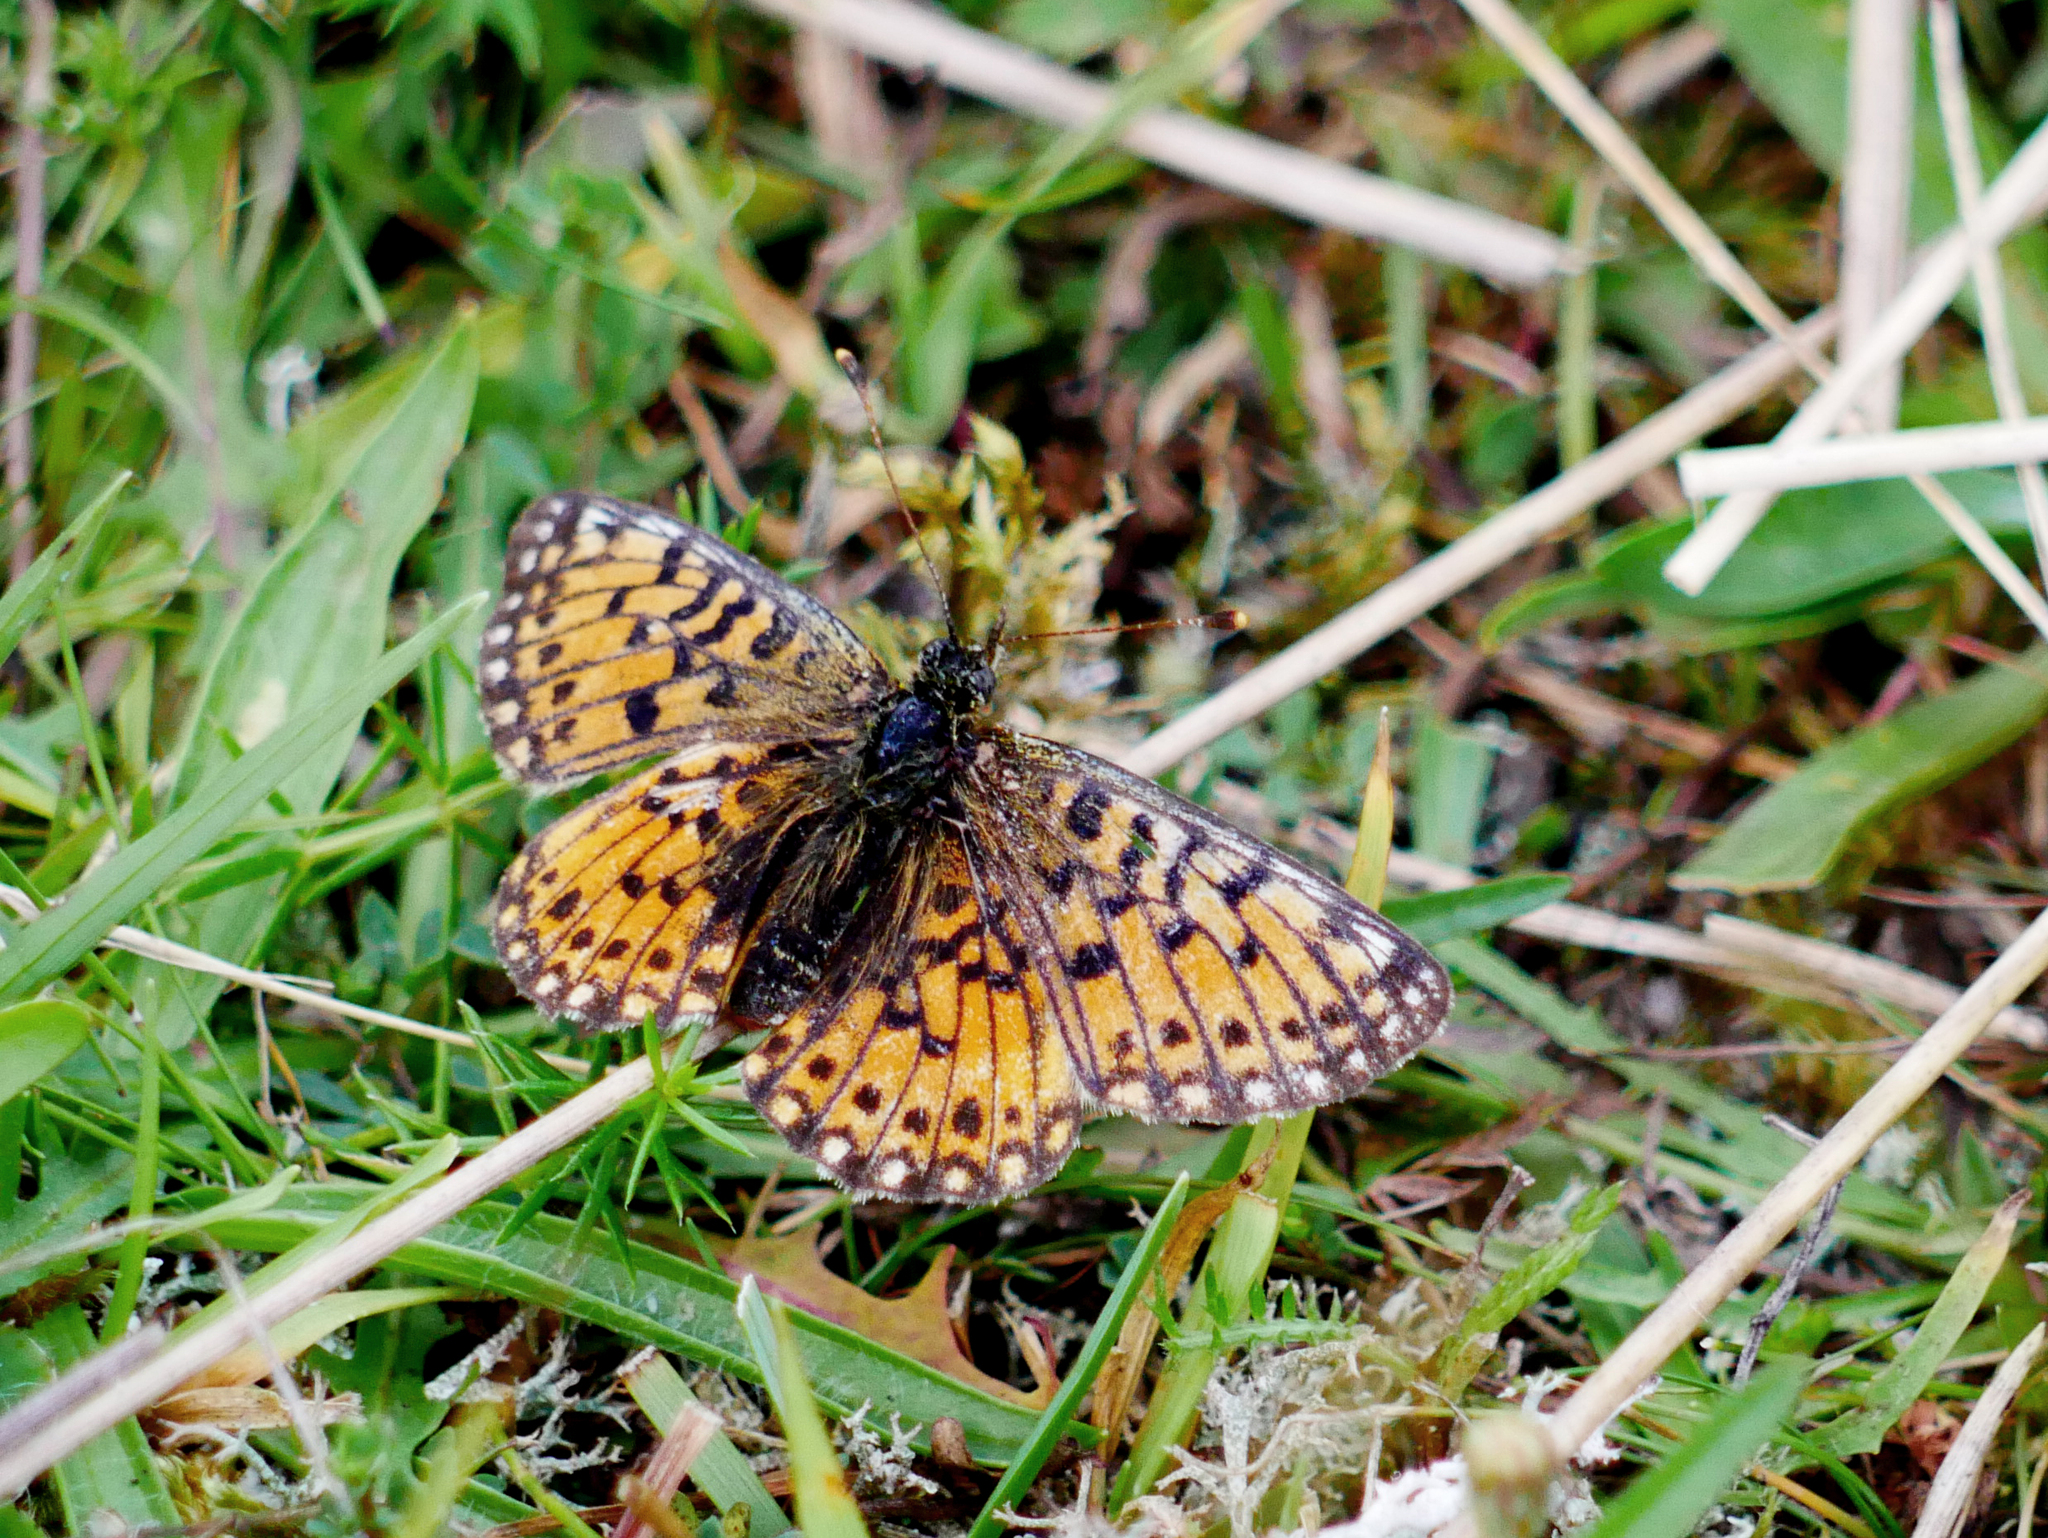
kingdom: Animalia
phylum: Arthropoda
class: Insecta
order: Lepidoptera
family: Nymphalidae
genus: Boloria
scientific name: Boloria selene
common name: Small pearl-bordered fritillary
